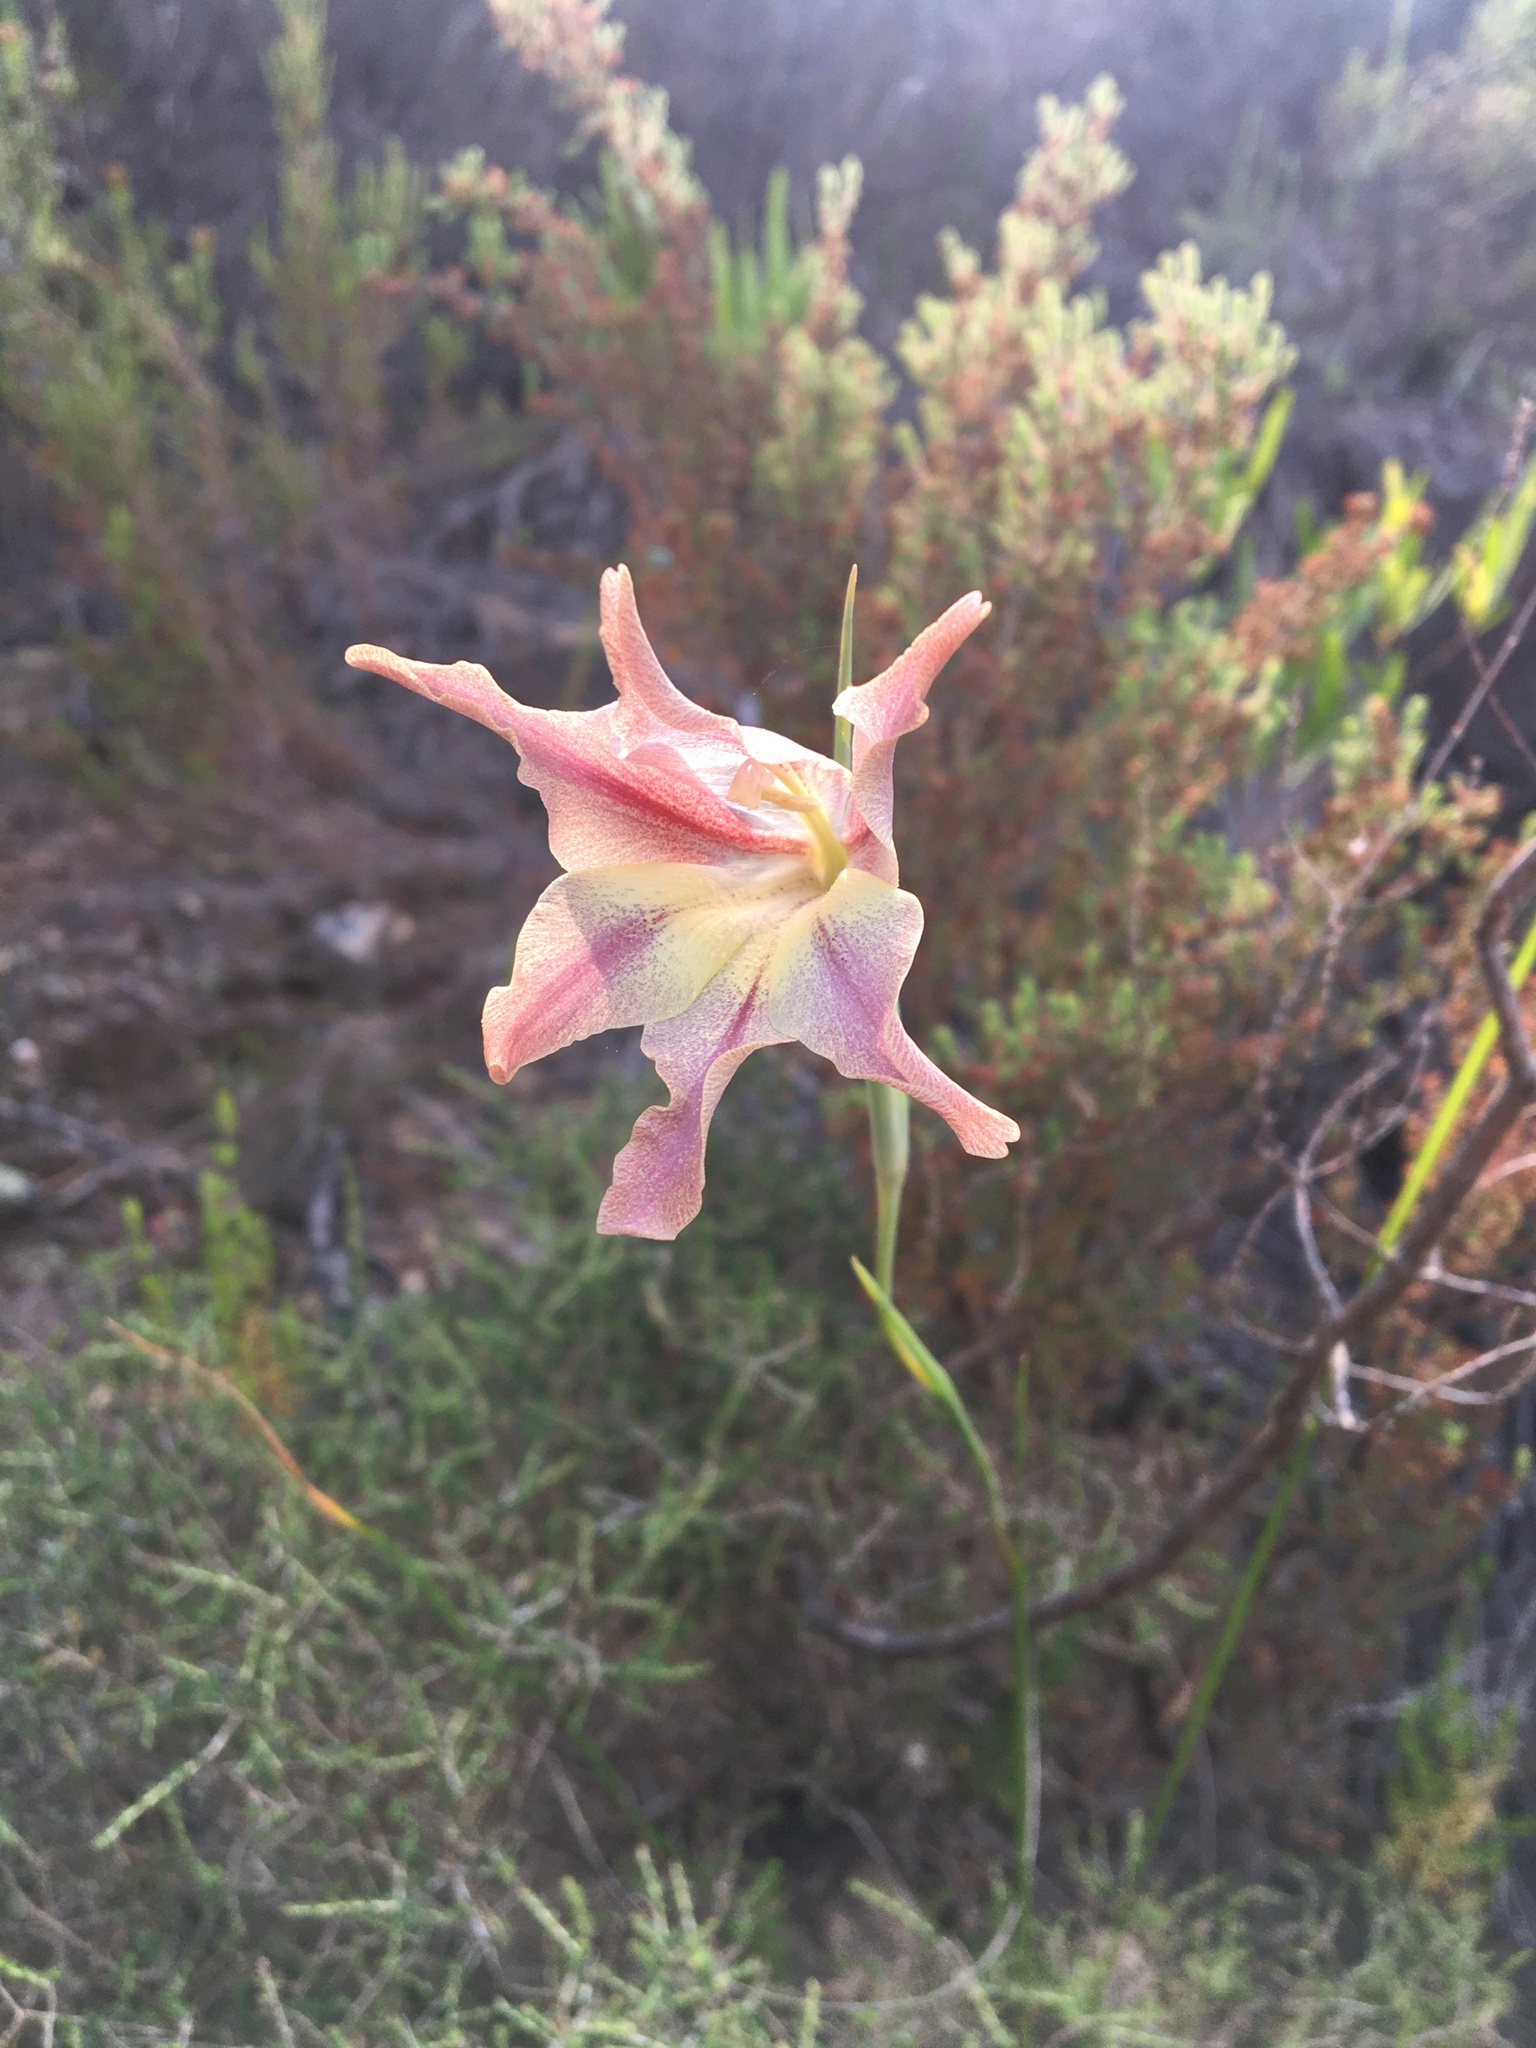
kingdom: Plantae
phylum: Tracheophyta
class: Liliopsida
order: Asparagales
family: Iridaceae
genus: Gladiolus
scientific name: Gladiolus liliaceus
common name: Large brown afrikaner
